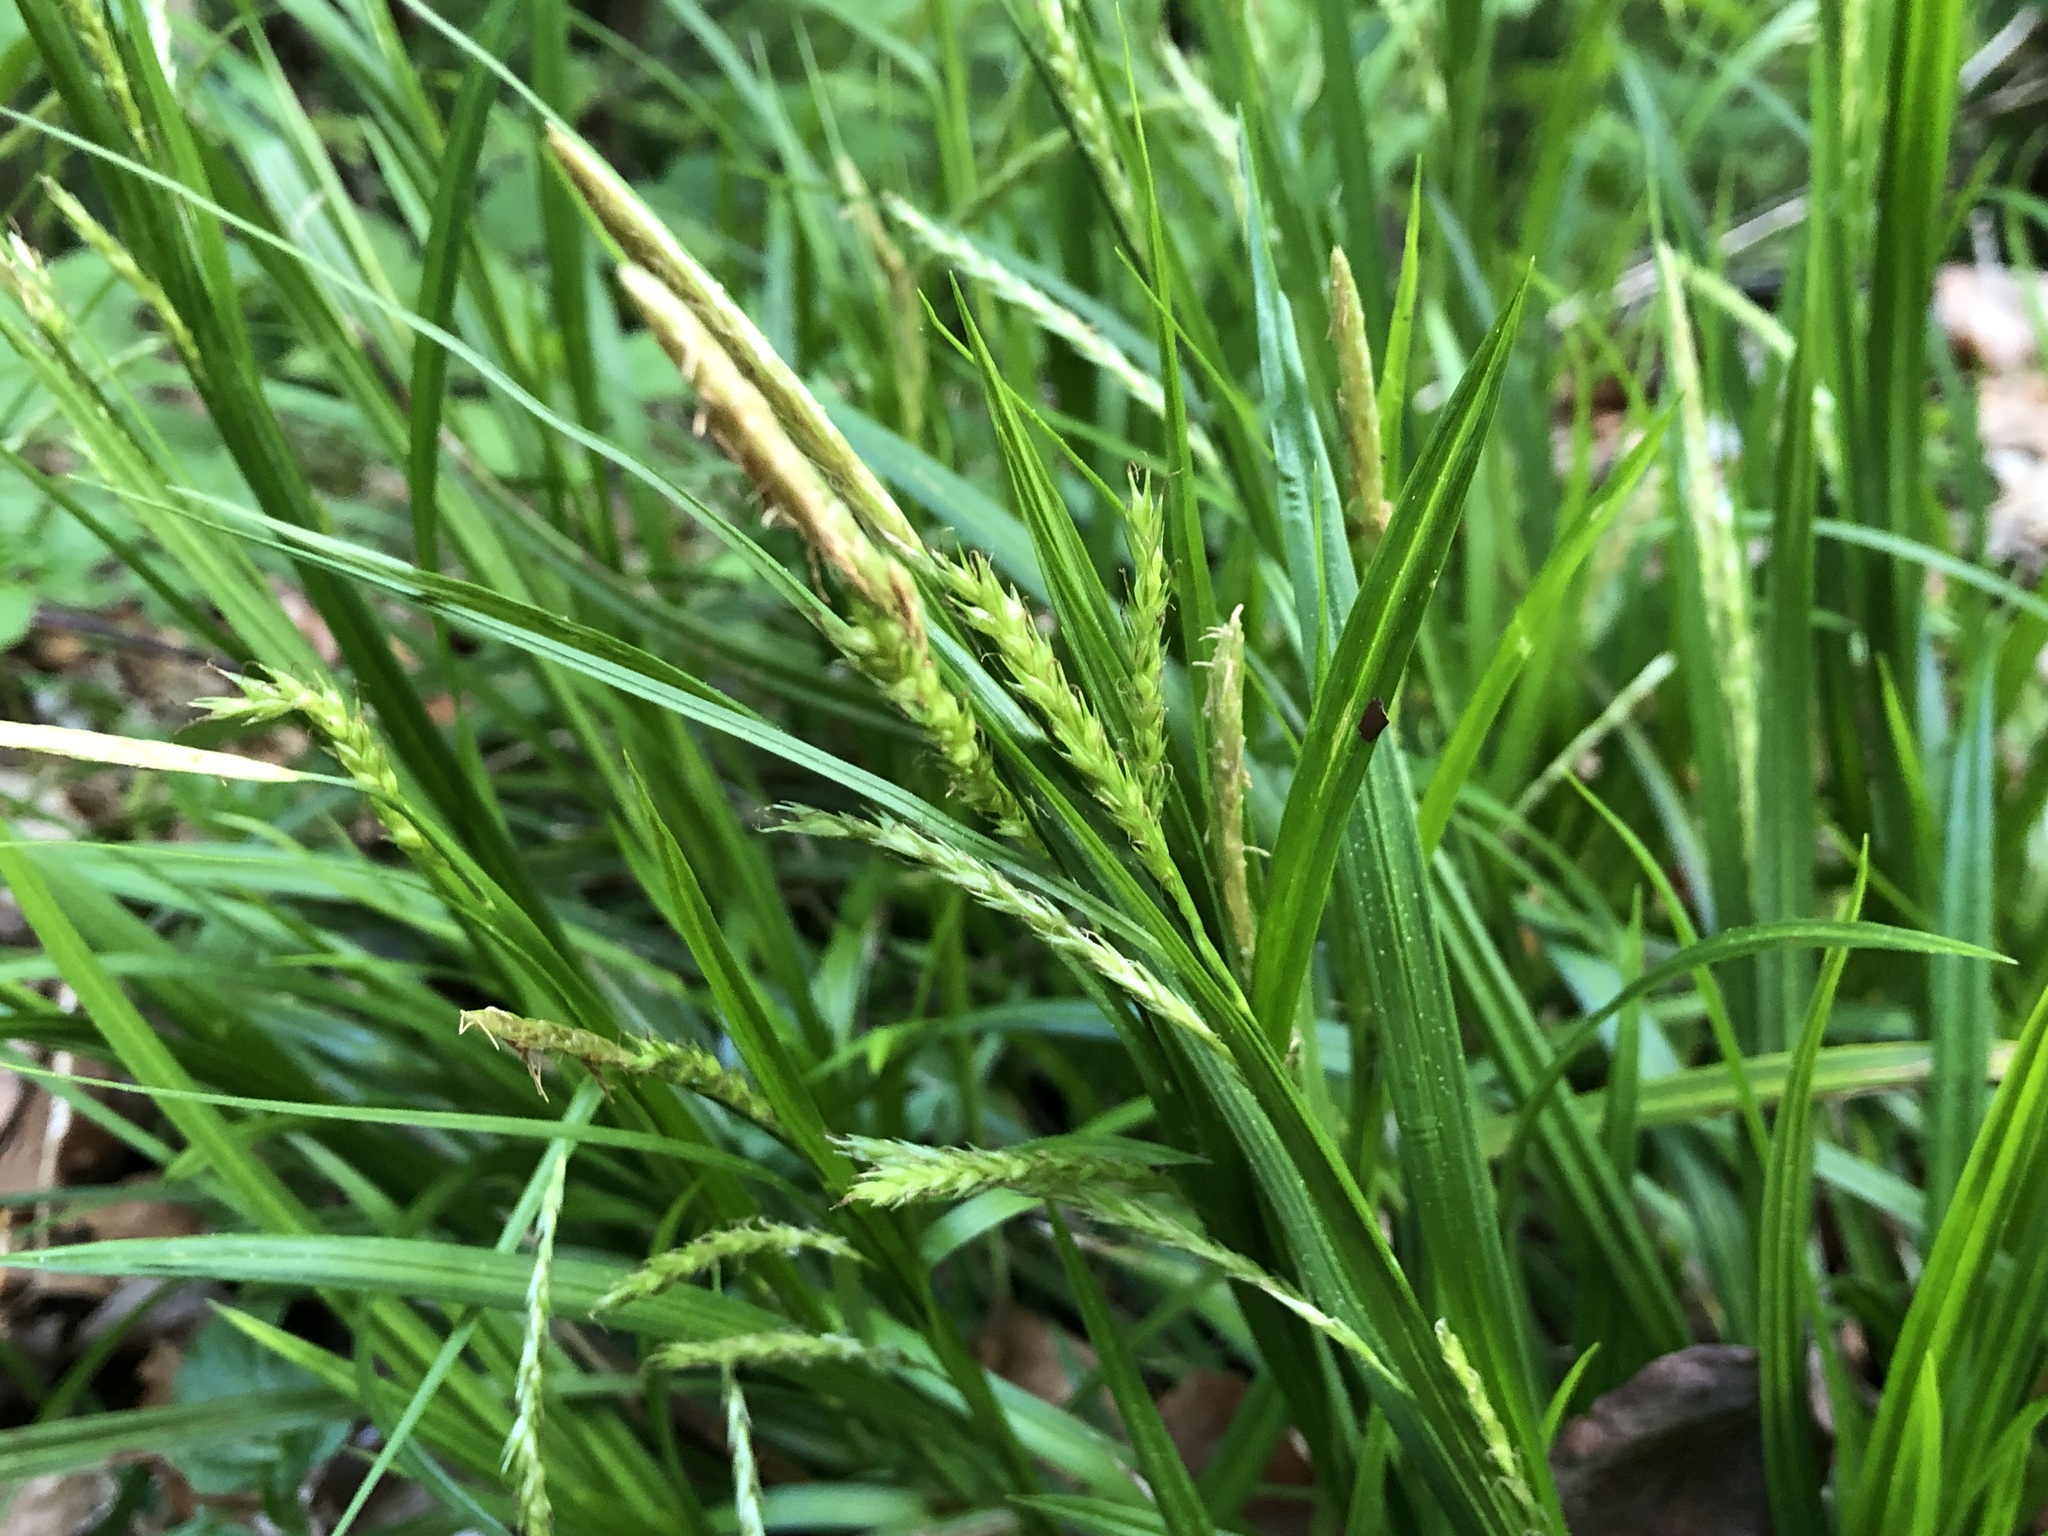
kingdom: Plantae
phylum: Tracheophyta
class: Liliopsida
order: Poales
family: Cyperaceae
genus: Carex
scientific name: Carex sylvatica
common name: Wood-sedge
